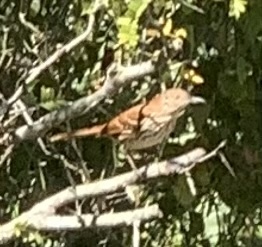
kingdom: Animalia
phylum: Chordata
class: Aves
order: Passeriformes
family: Mimidae
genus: Toxostoma
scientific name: Toxostoma rufum
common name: Brown thrasher
